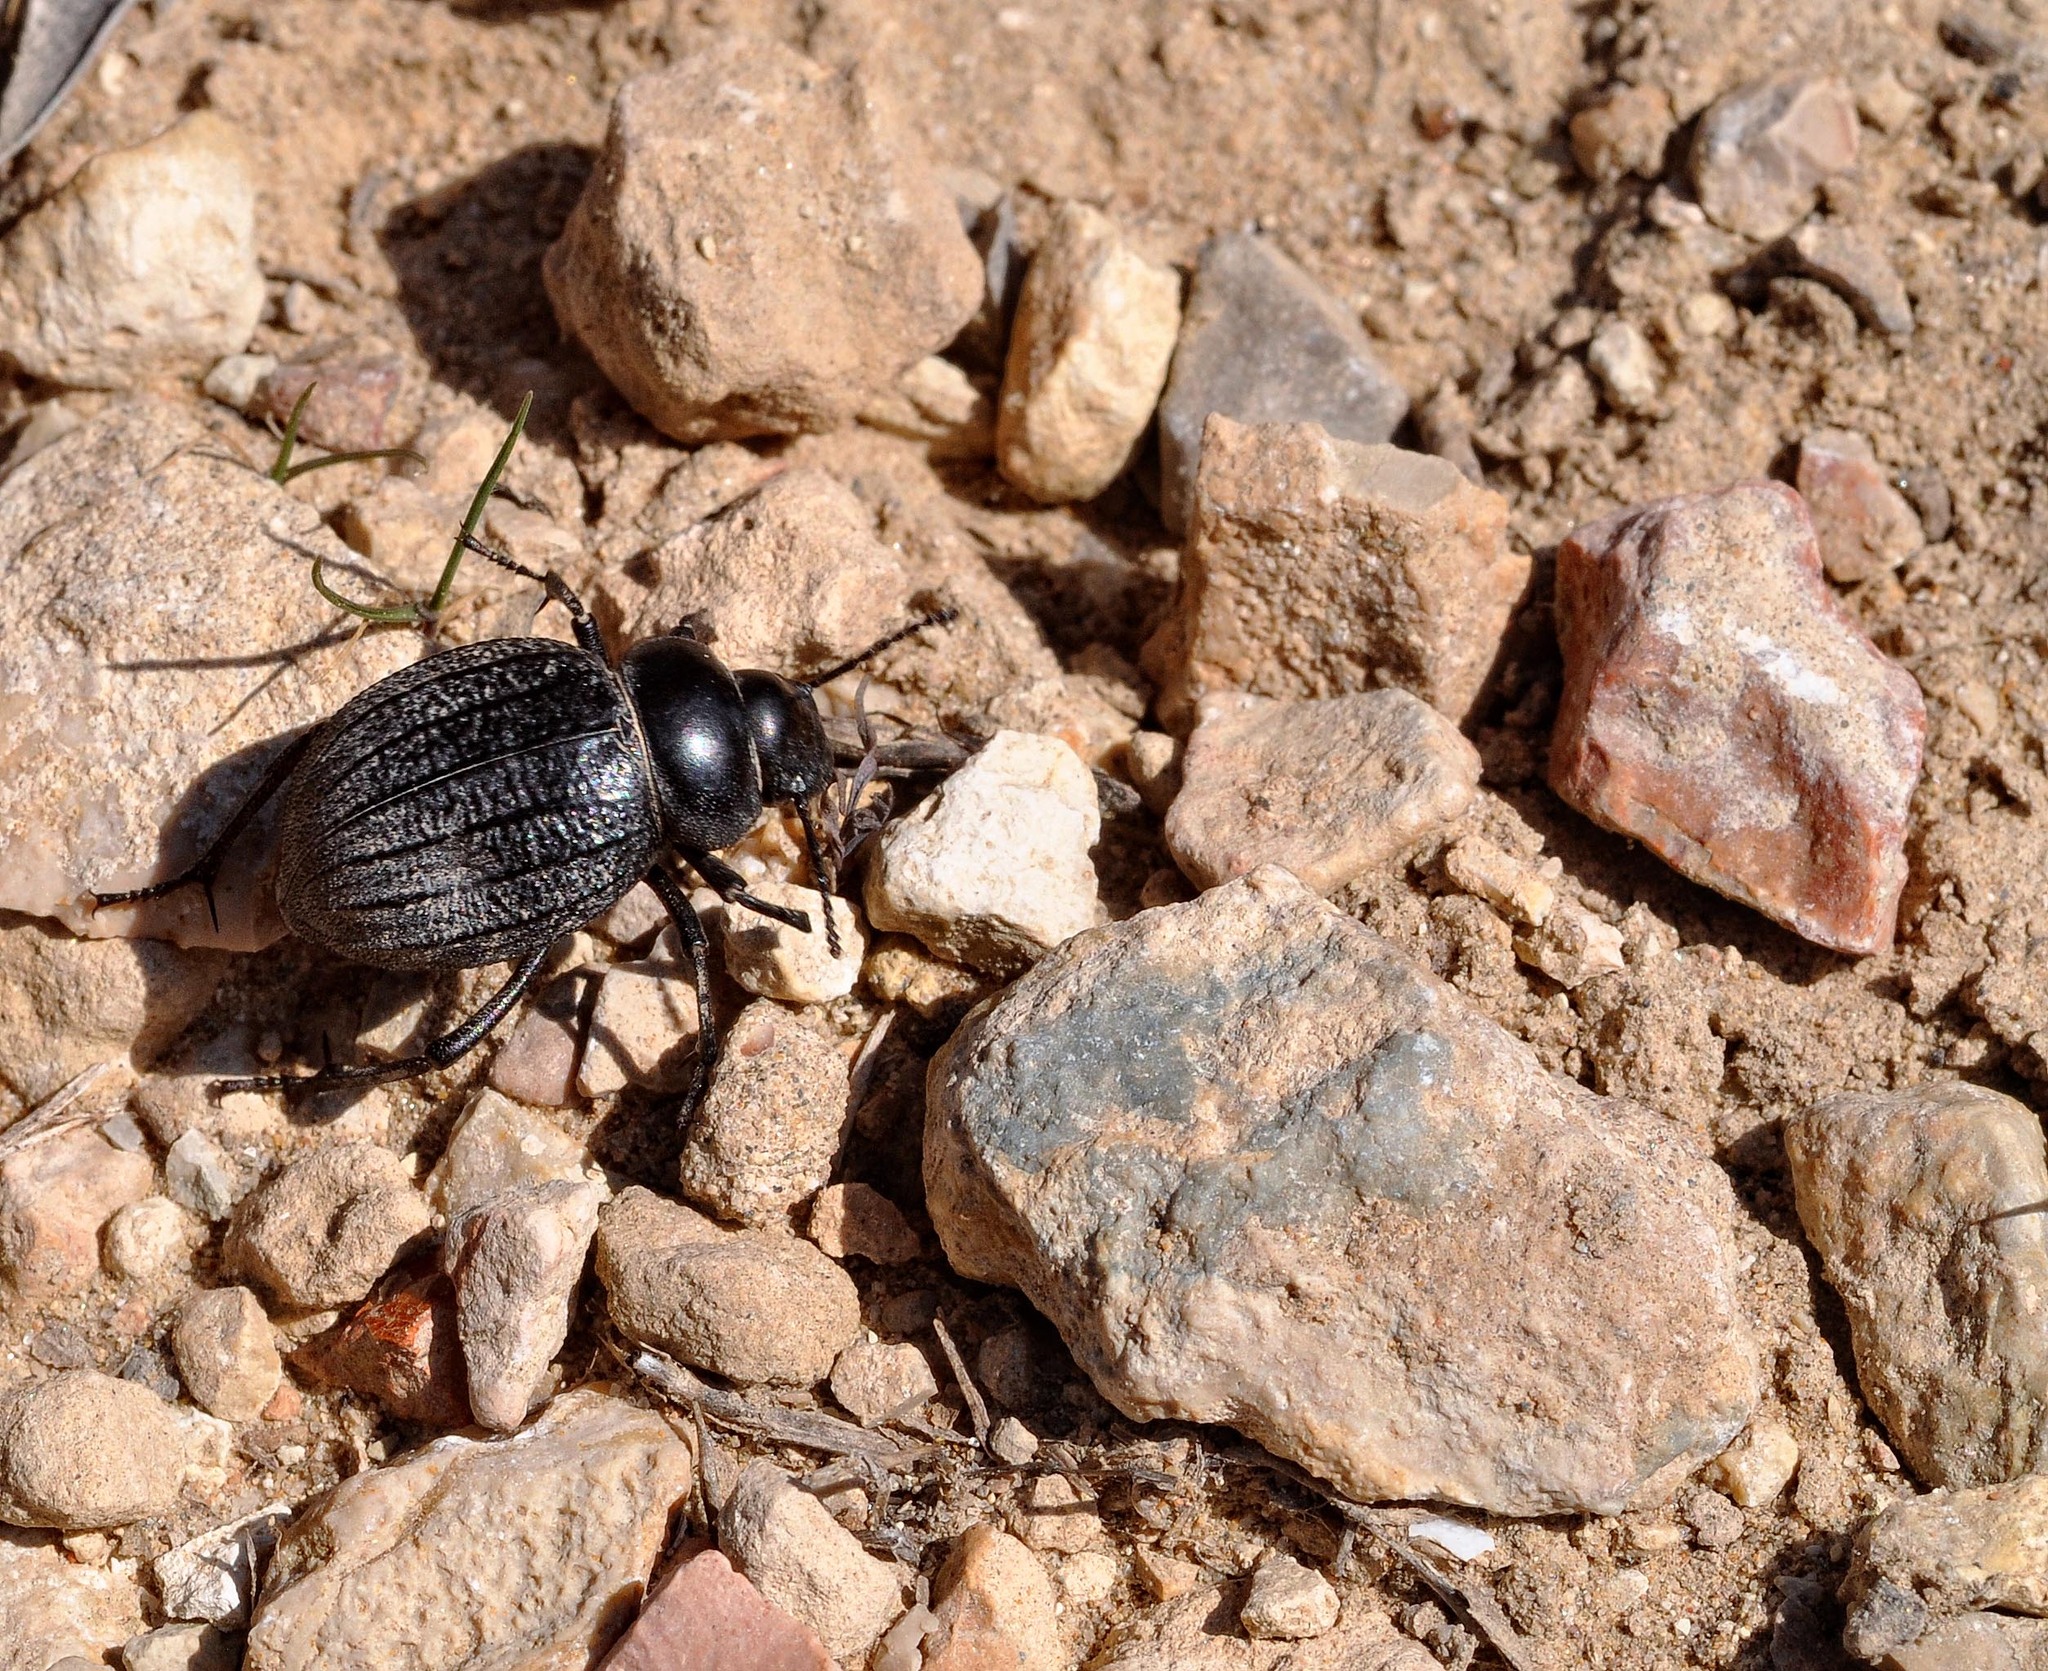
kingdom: Animalia
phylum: Arthropoda
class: Insecta
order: Coleoptera
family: Tenebrionidae
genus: Pimelia
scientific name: Pimelia interjecta
